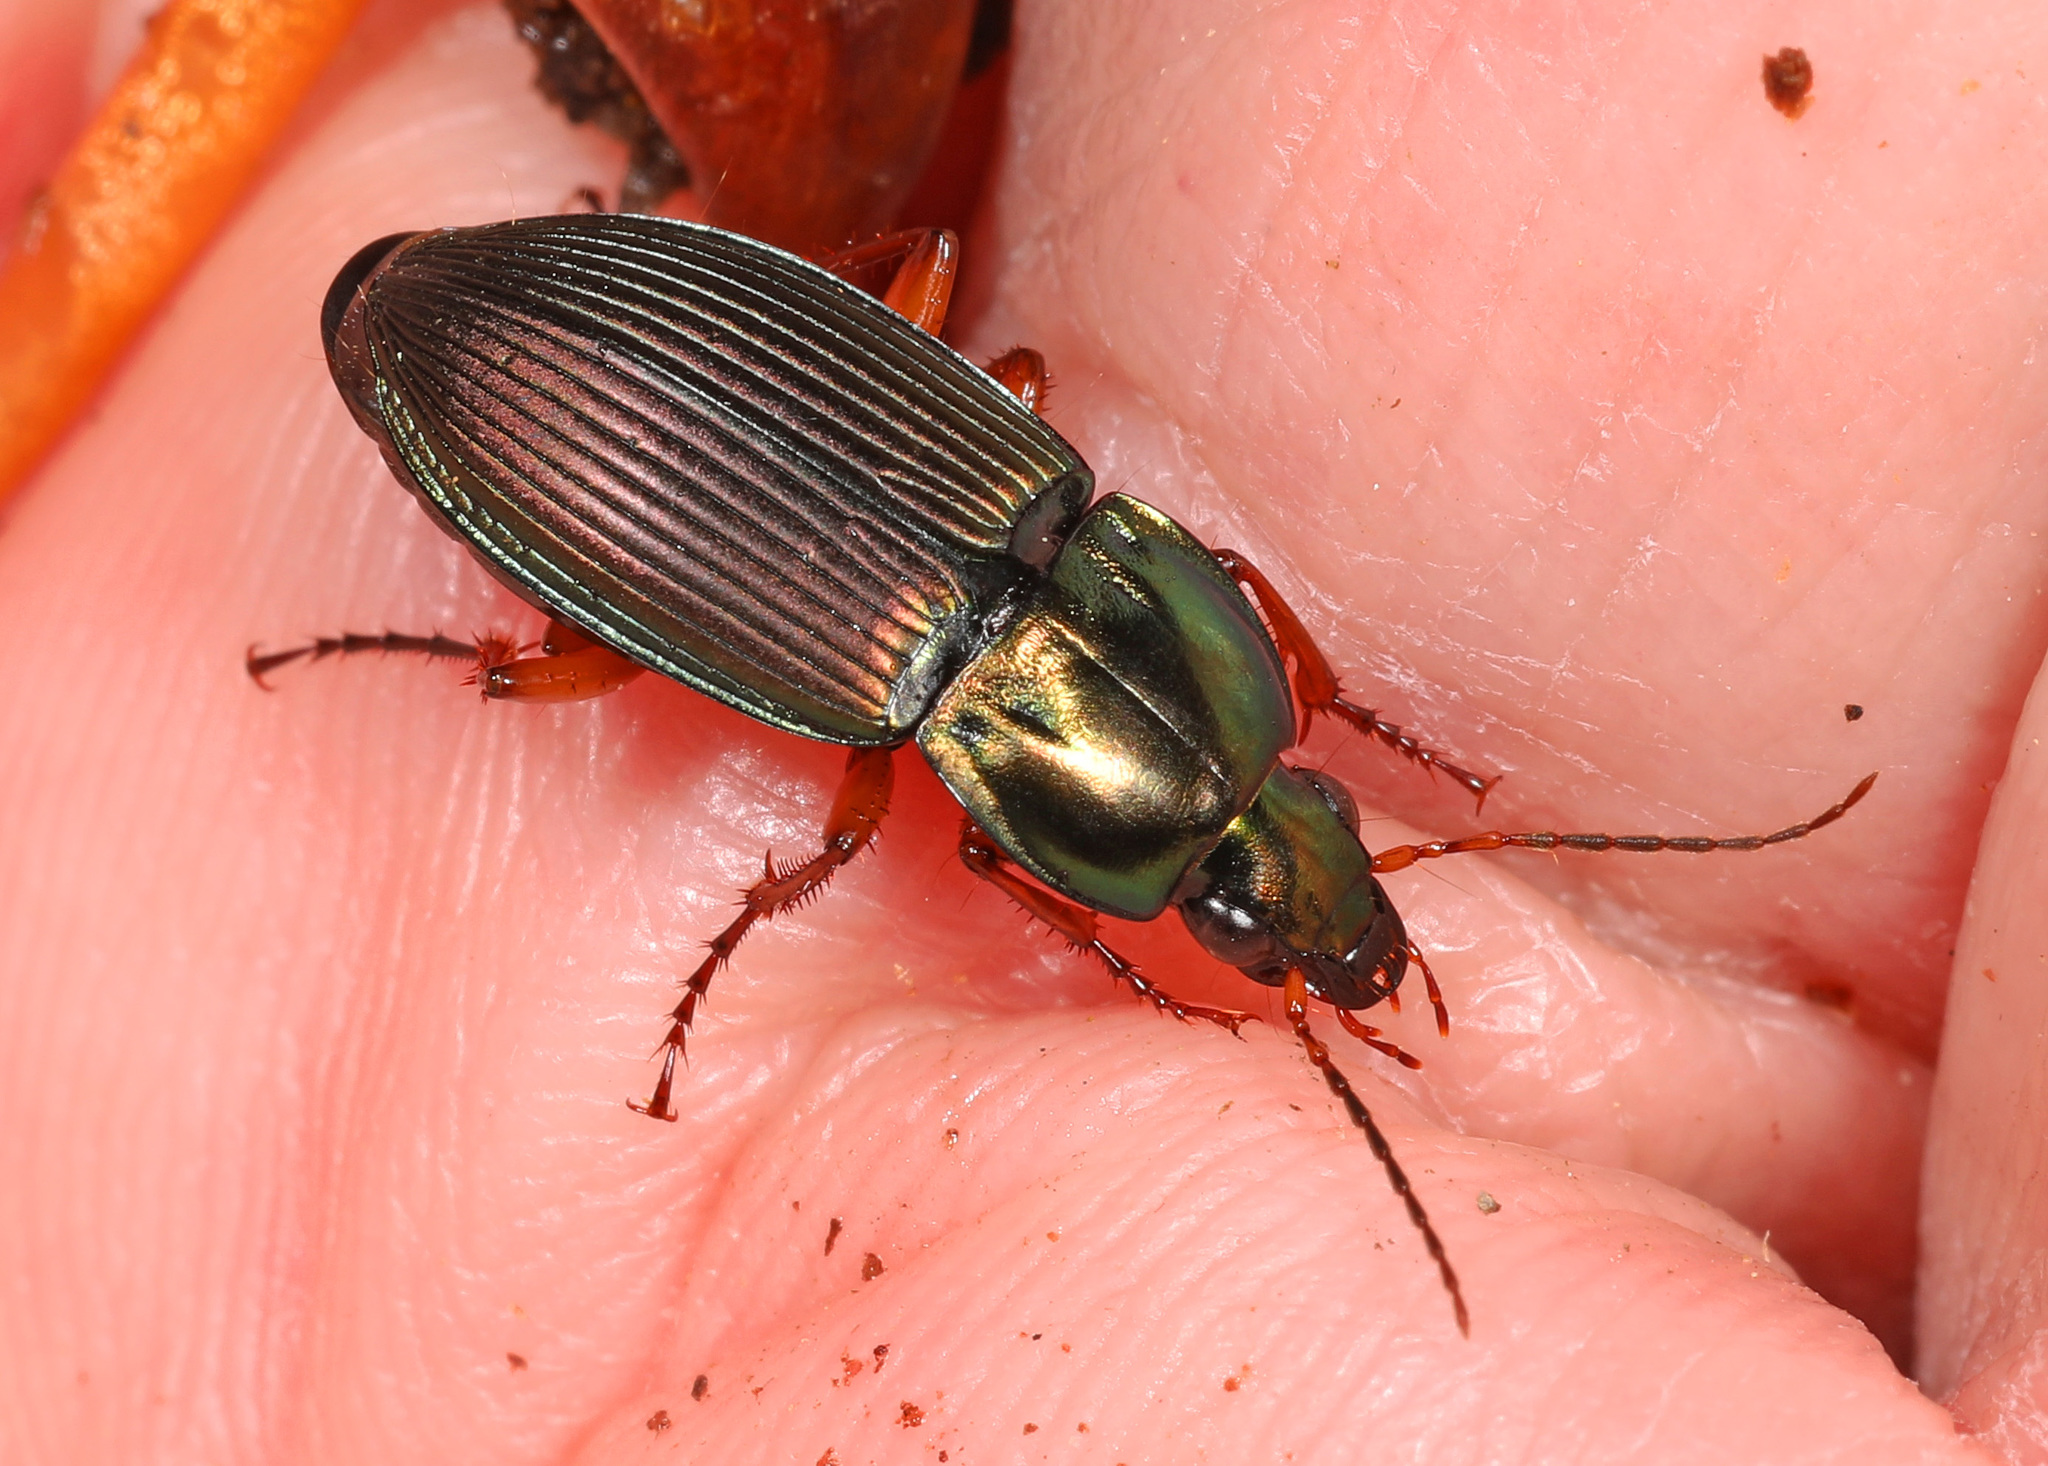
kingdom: Animalia
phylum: Arthropoda
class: Insecta
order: Coleoptera
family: Carabidae
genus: Poecilus
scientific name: Poecilus lucublandus
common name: Woodland ground beetle
